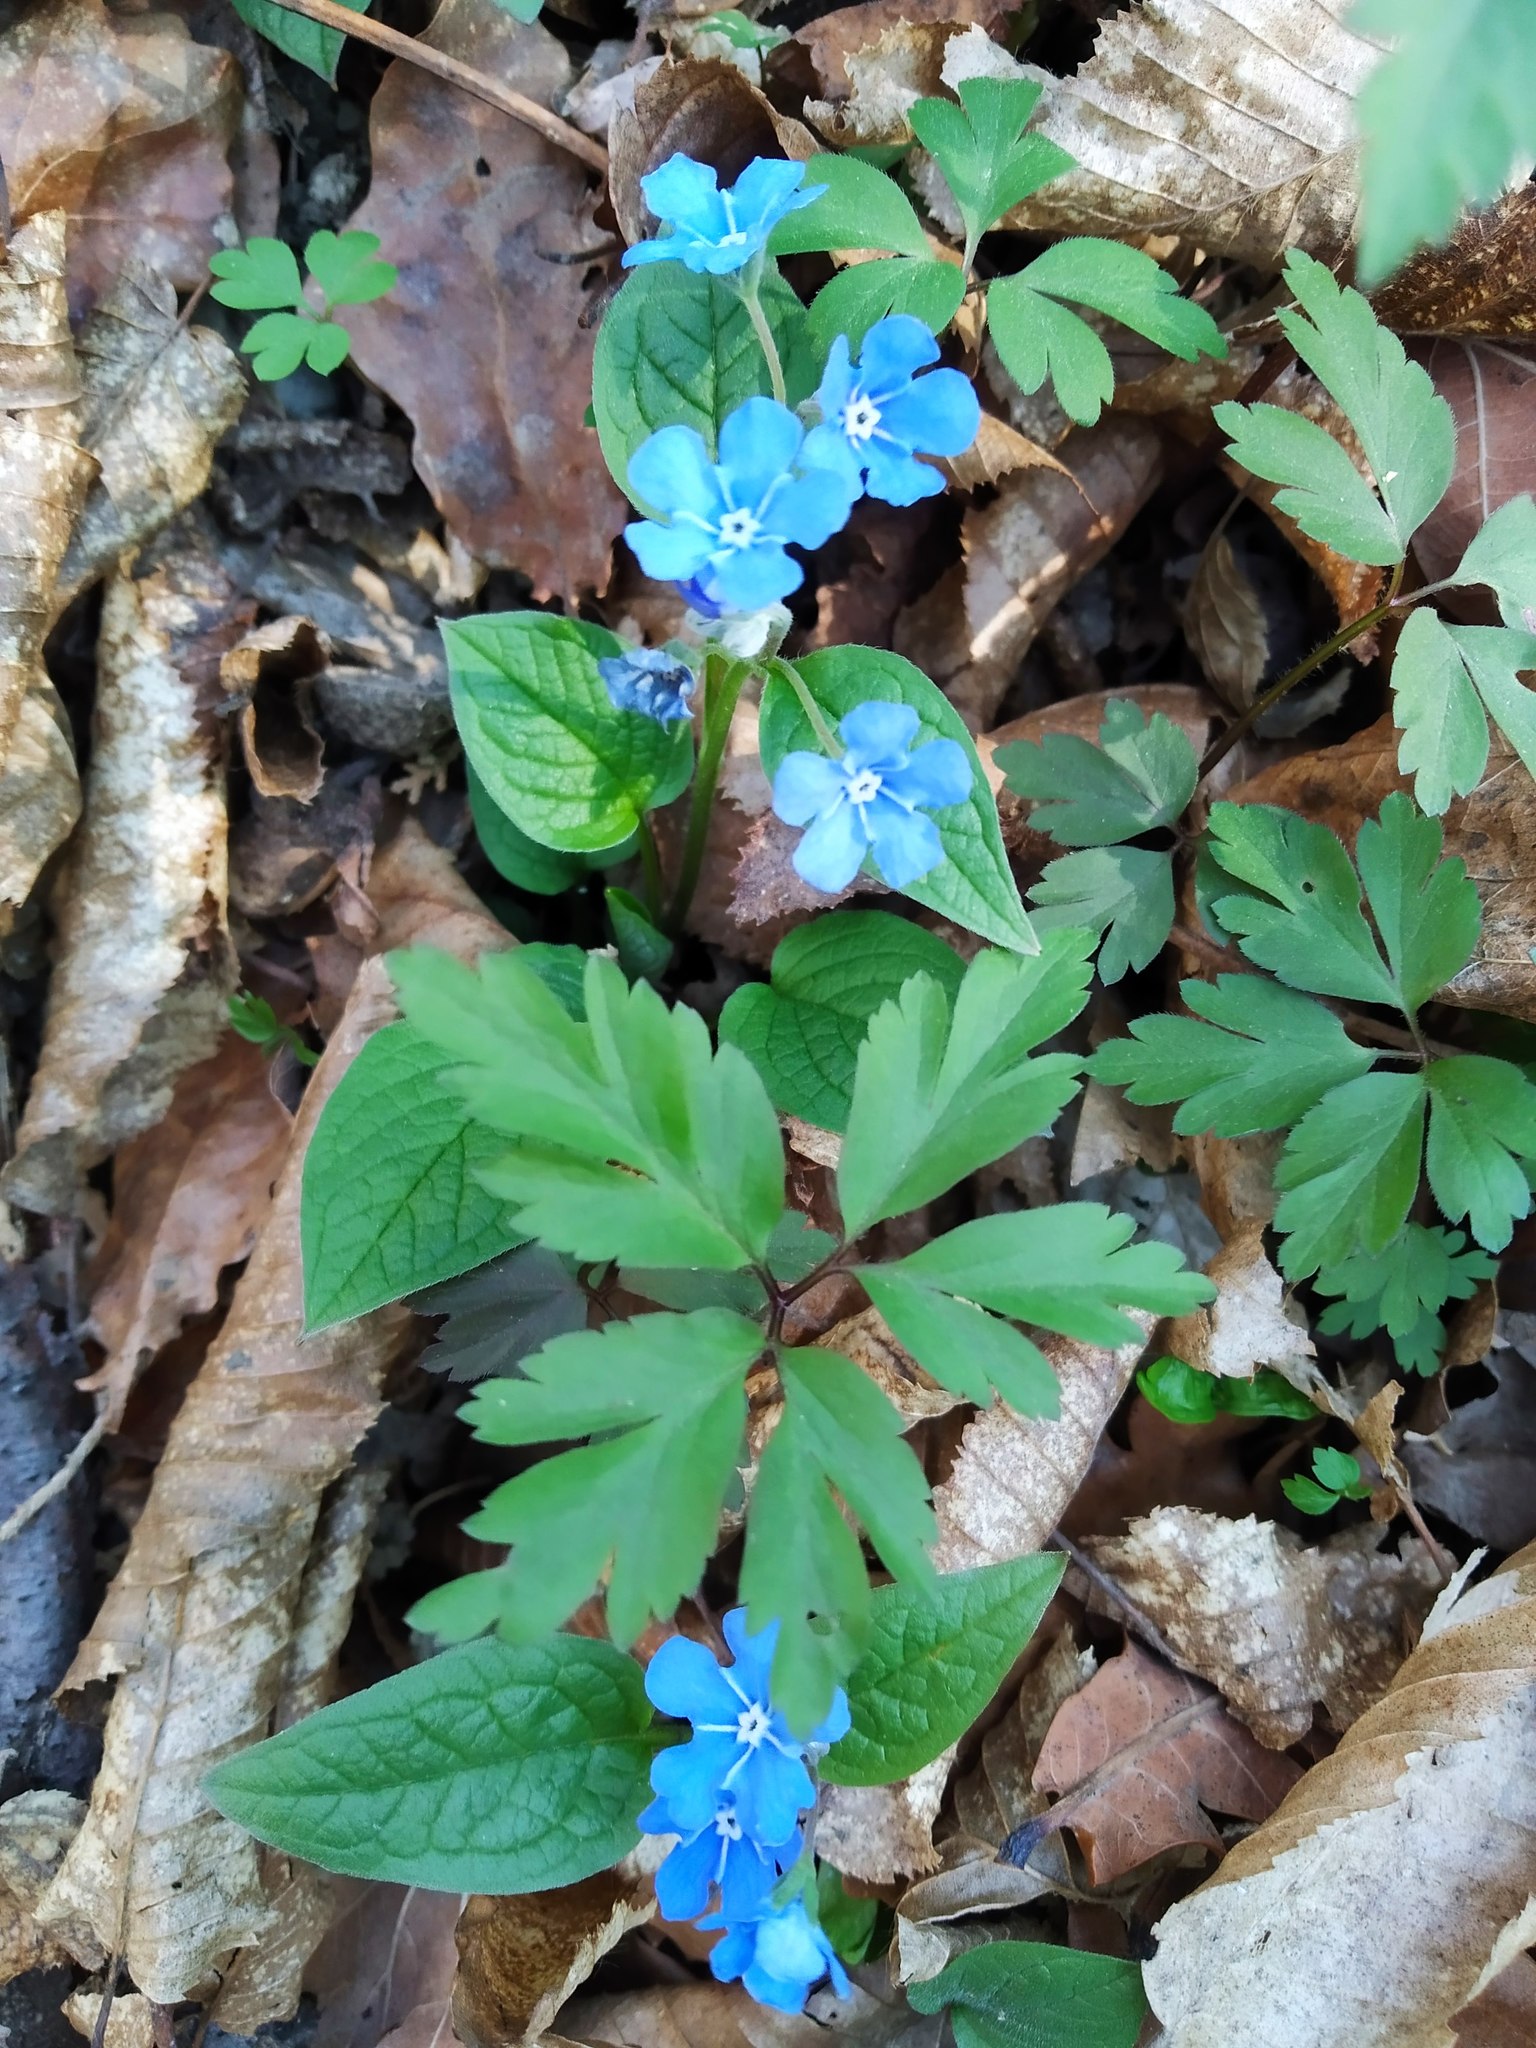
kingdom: Plantae
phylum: Tracheophyta
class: Magnoliopsida
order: Boraginales
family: Boraginaceae
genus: Omphalodes
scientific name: Omphalodes verna
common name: Blue-eyed-mary
